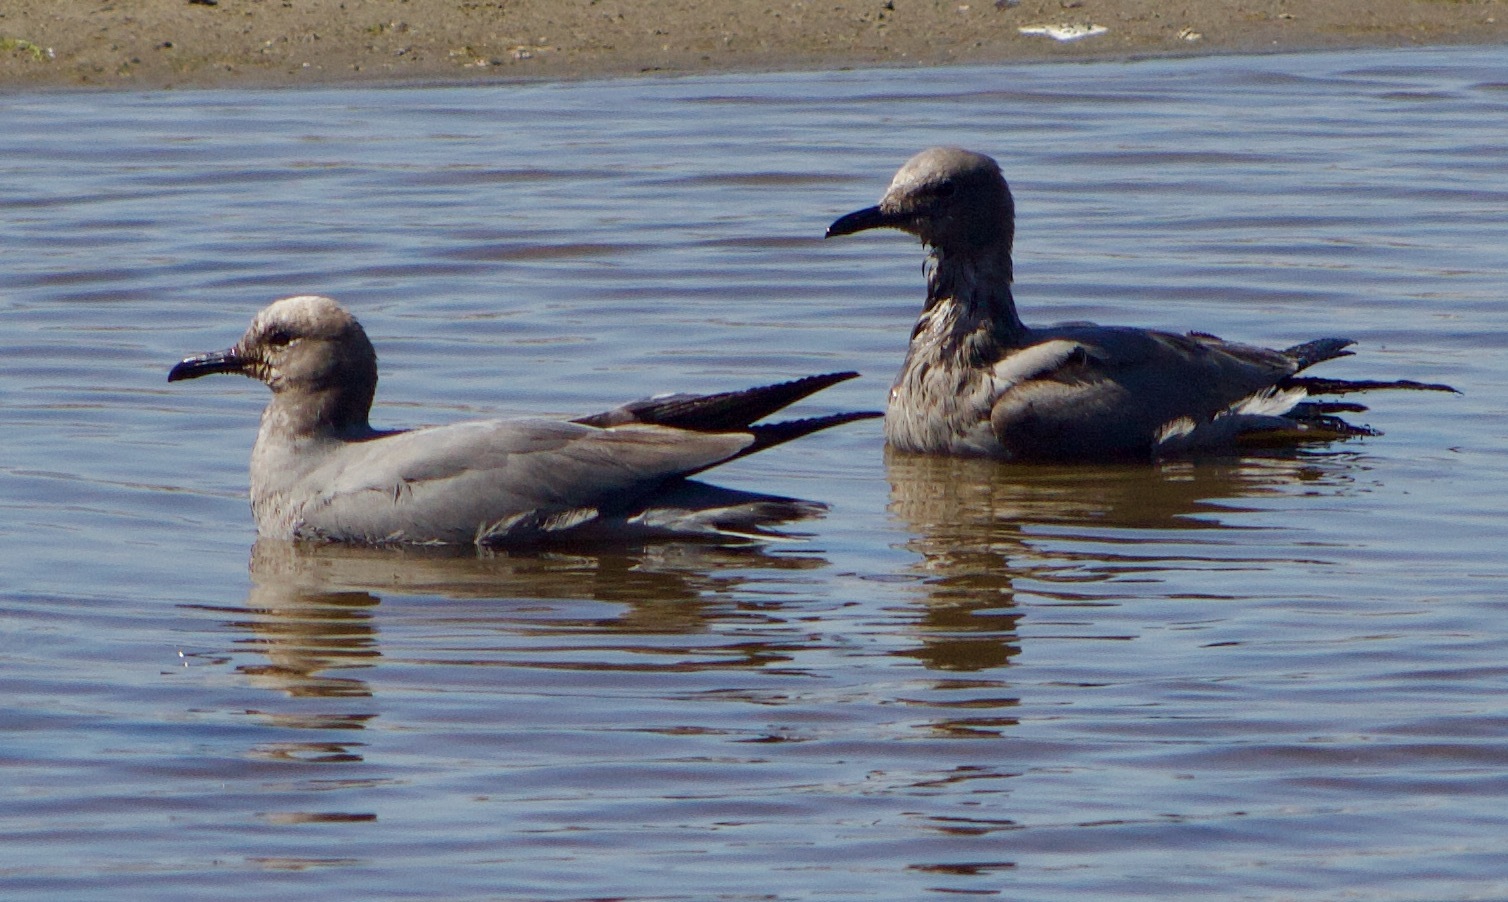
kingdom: Animalia
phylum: Chordata
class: Aves
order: Charadriiformes
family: Laridae
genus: Leucophaeus
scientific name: Leucophaeus modestus
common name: Gray gull
